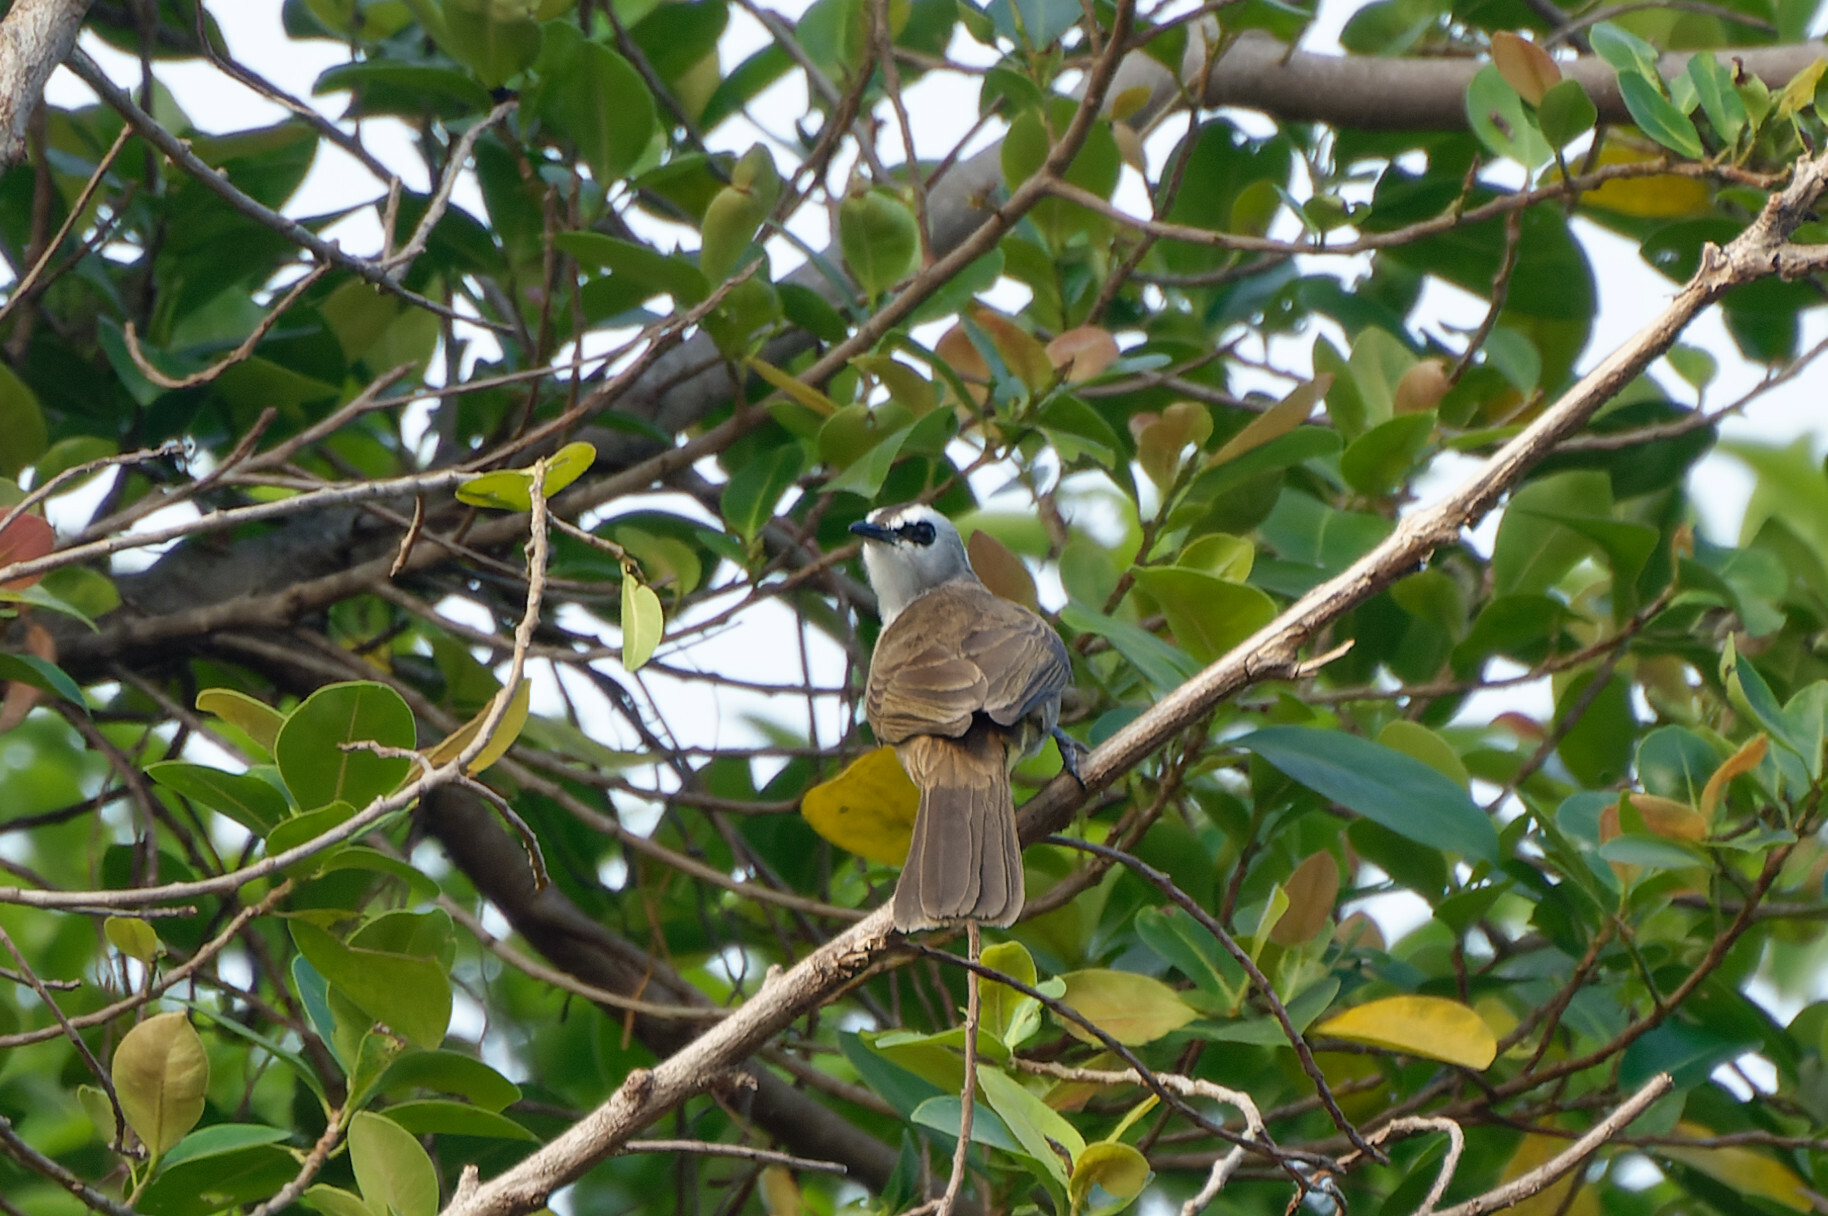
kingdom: Animalia
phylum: Chordata
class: Aves
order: Passeriformes
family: Pycnonotidae
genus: Pycnonotus
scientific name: Pycnonotus goiavier
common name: Yellow-vented bulbul
